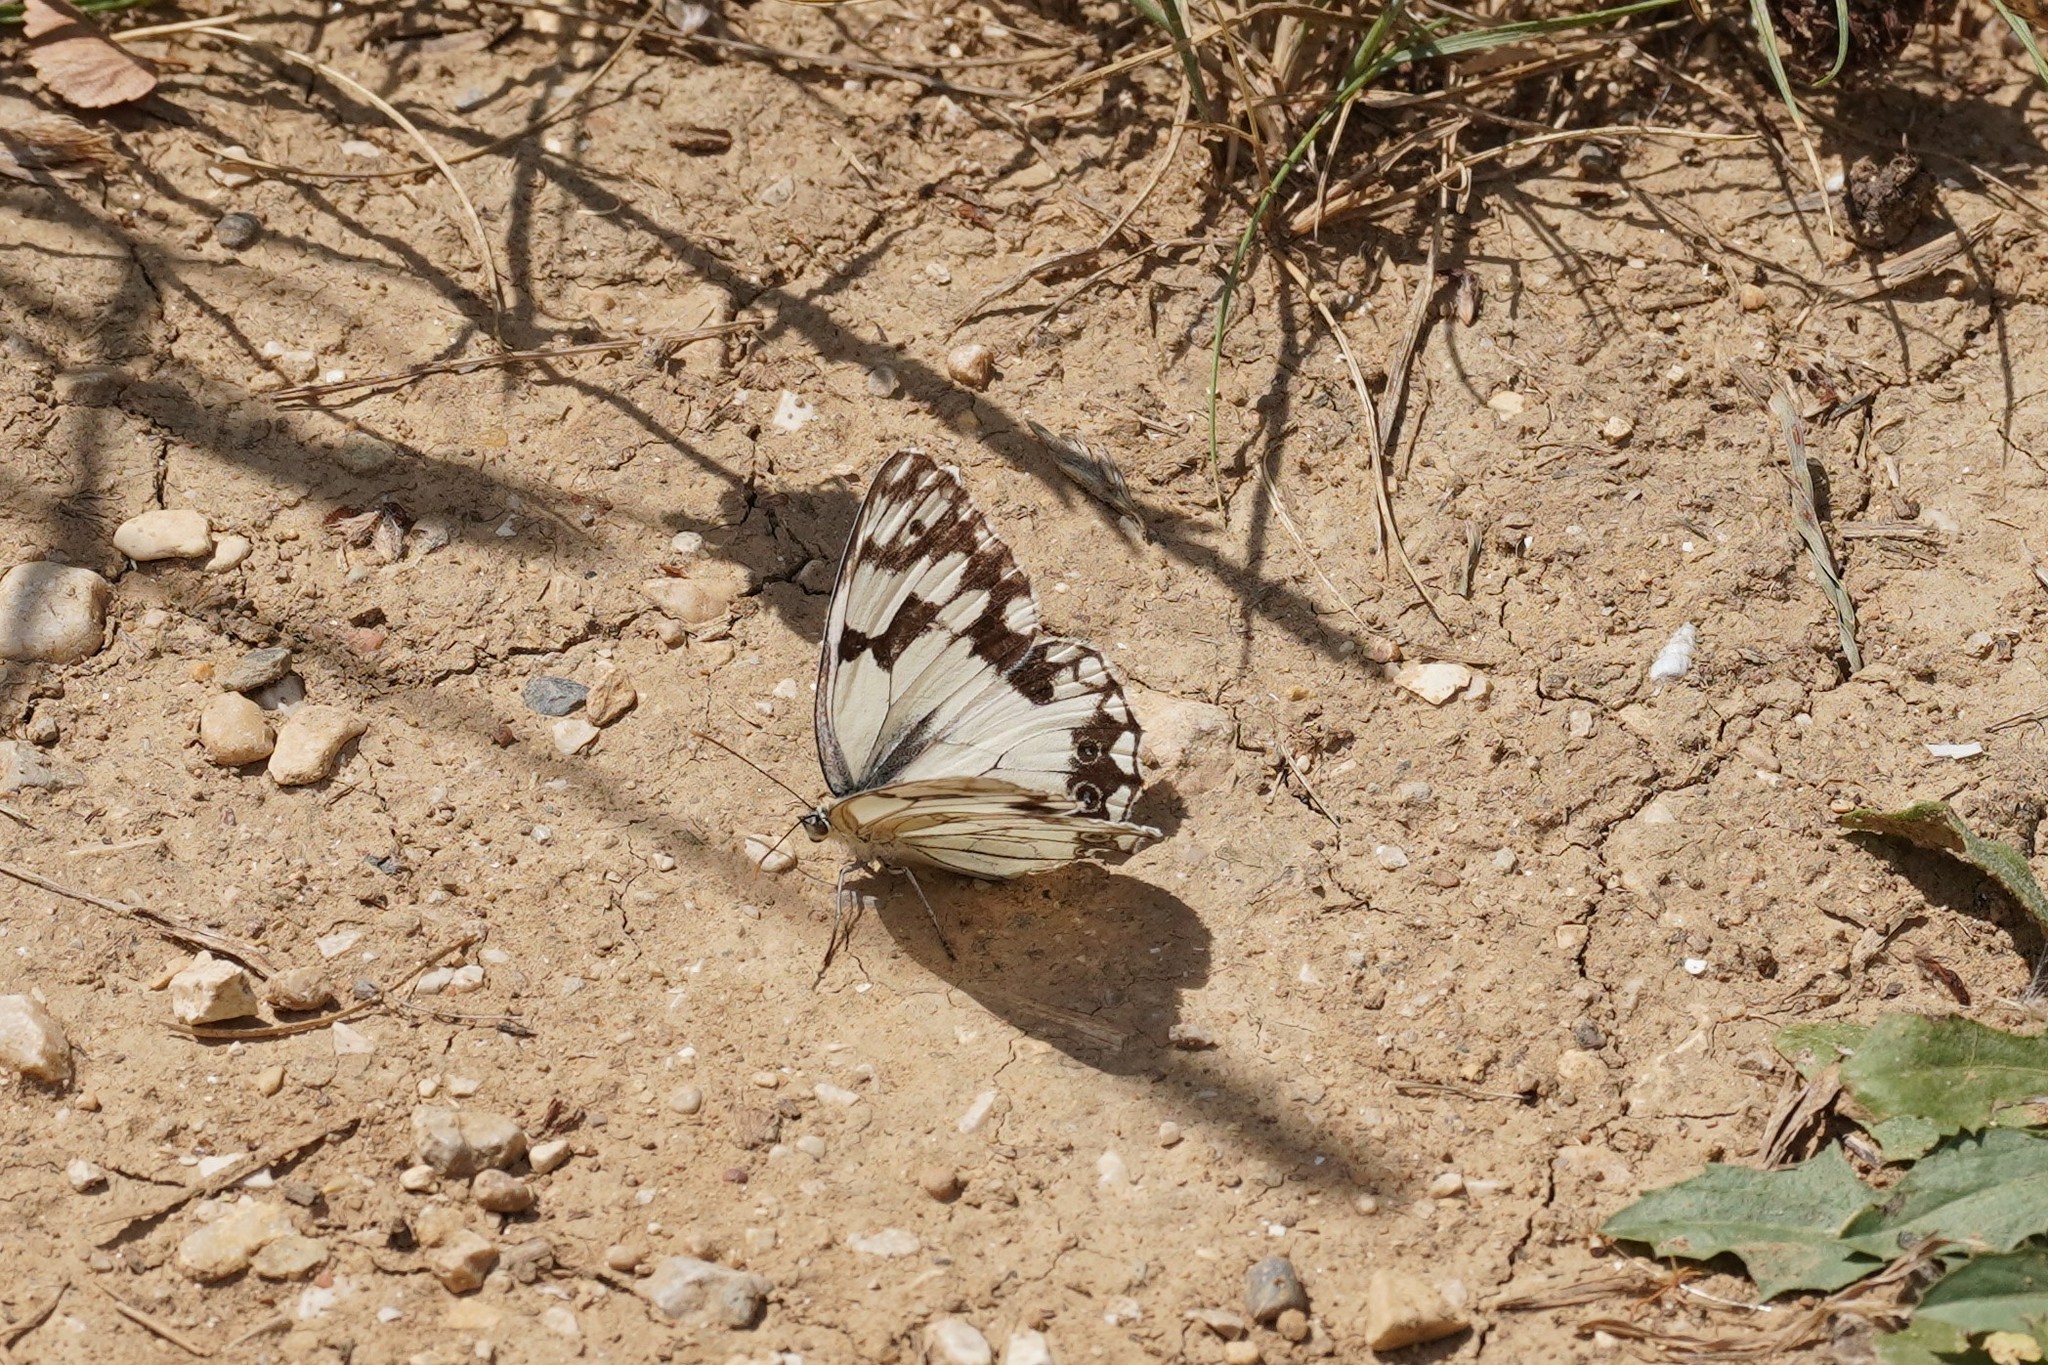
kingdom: Animalia
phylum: Arthropoda
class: Insecta
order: Lepidoptera
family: Nymphalidae
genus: Melanargia
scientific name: Melanargia lachesis
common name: Iberian marbled white
